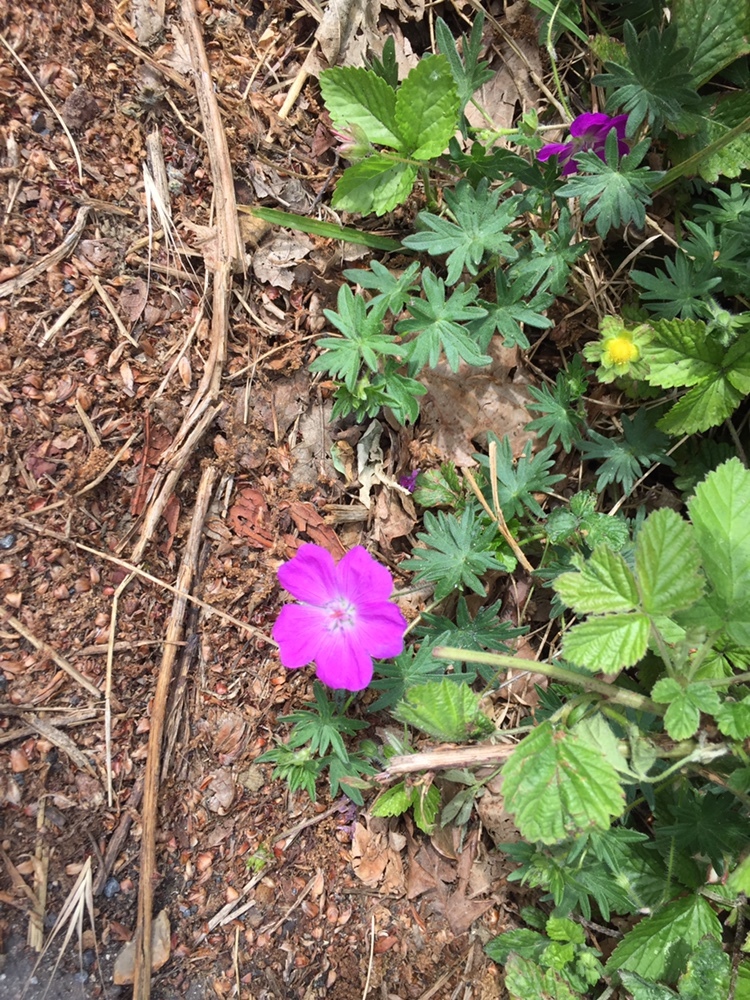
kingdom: Plantae
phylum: Tracheophyta
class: Magnoliopsida
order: Geraniales
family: Geraniaceae
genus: Geranium
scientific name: Geranium sanguineum
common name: Bloody crane's-bill
